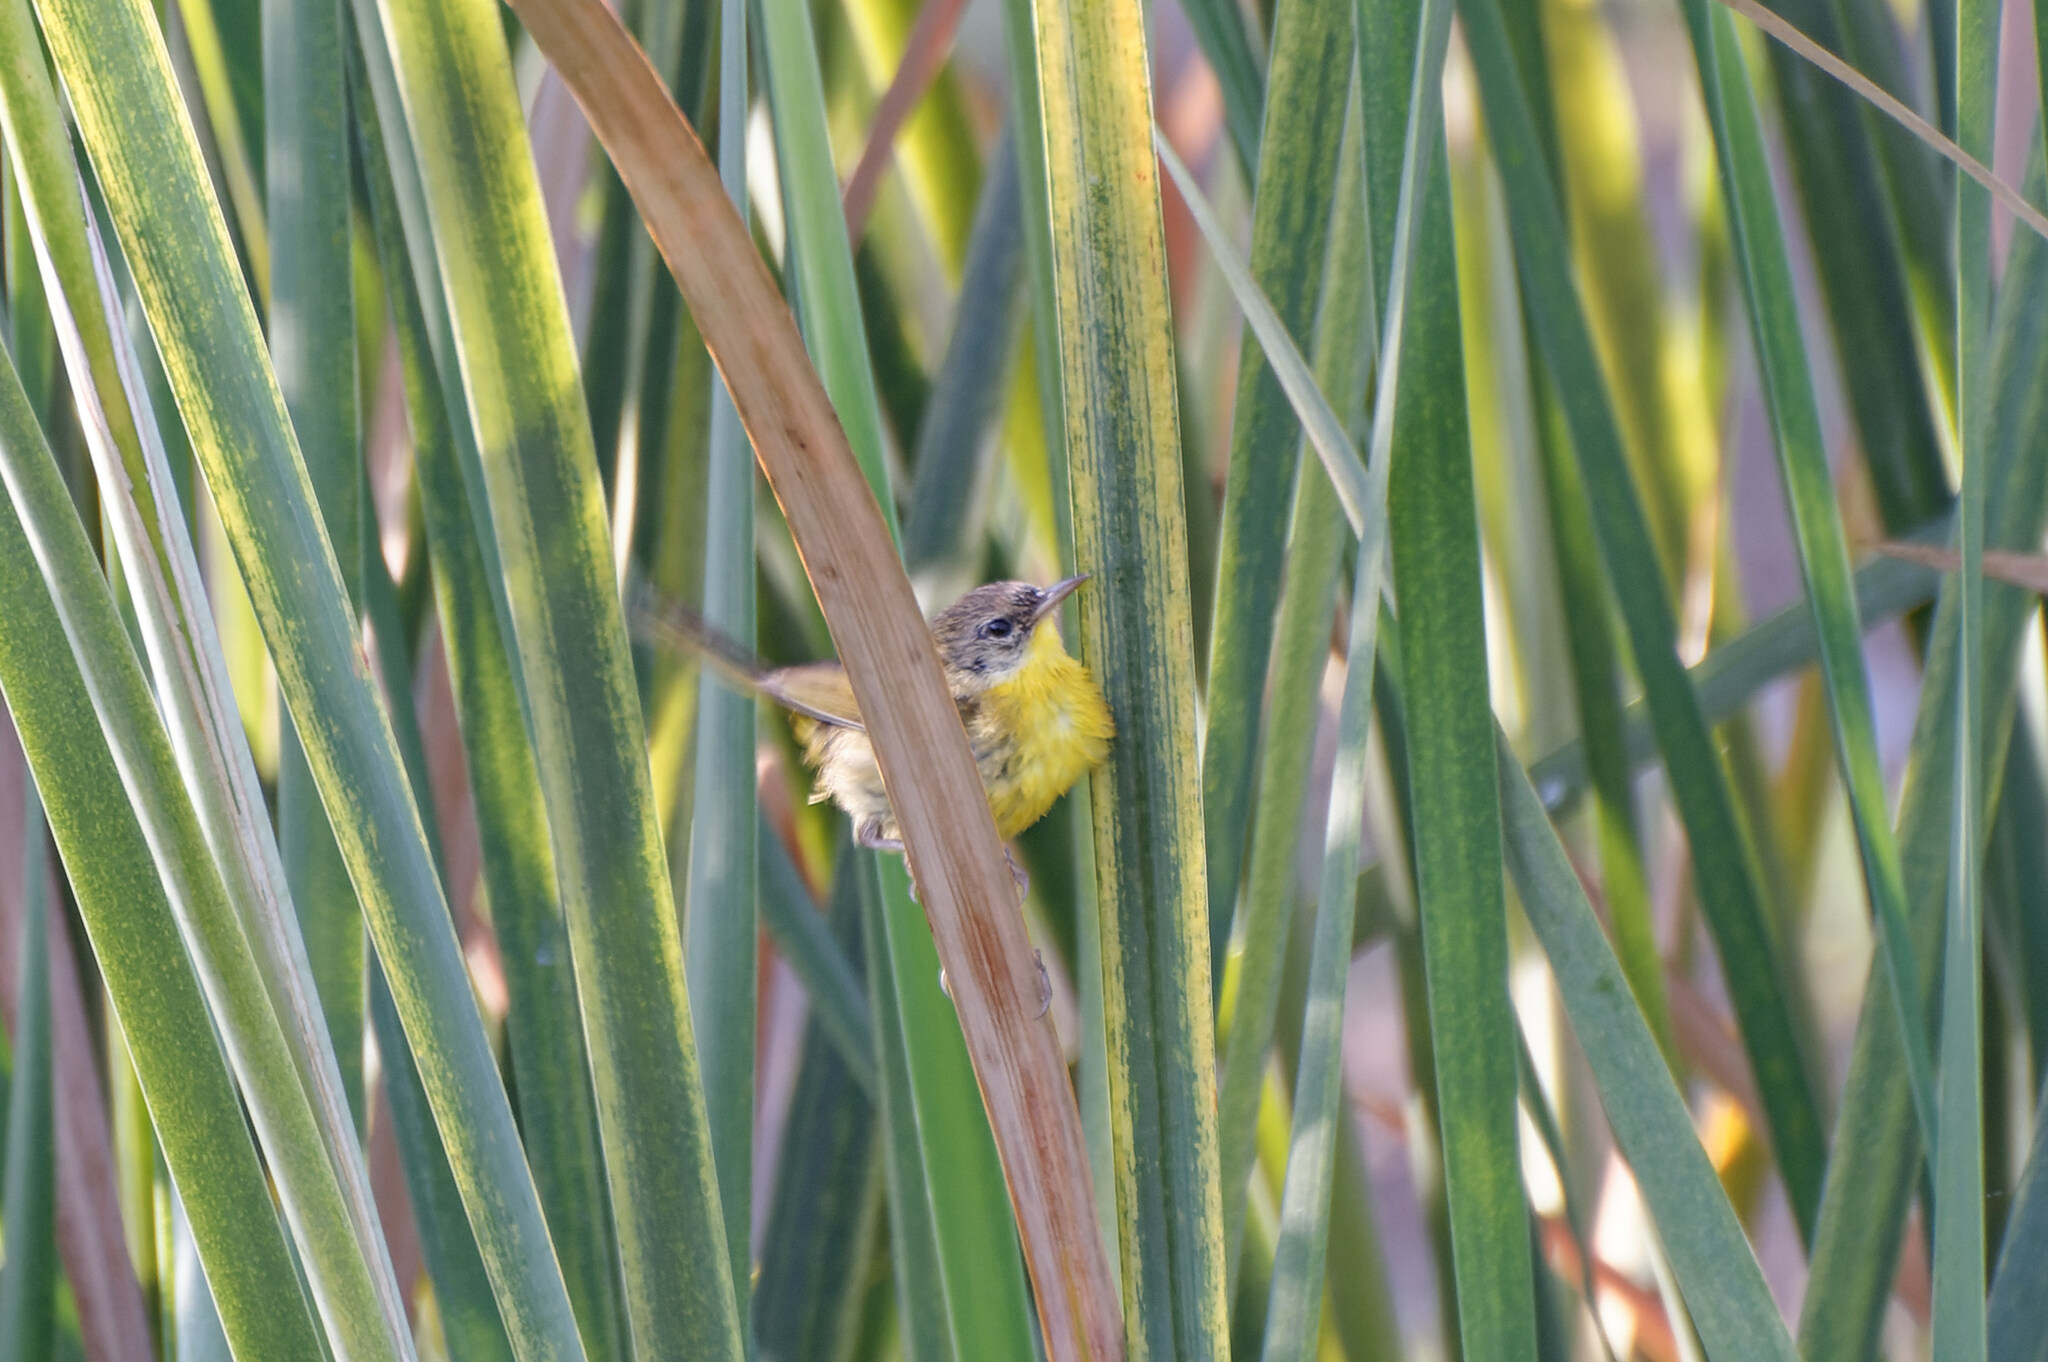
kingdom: Animalia
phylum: Chordata
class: Aves
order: Passeriformes
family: Parulidae
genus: Geothlypis
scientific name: Geothlypis trichas
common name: Common yellowthroat
